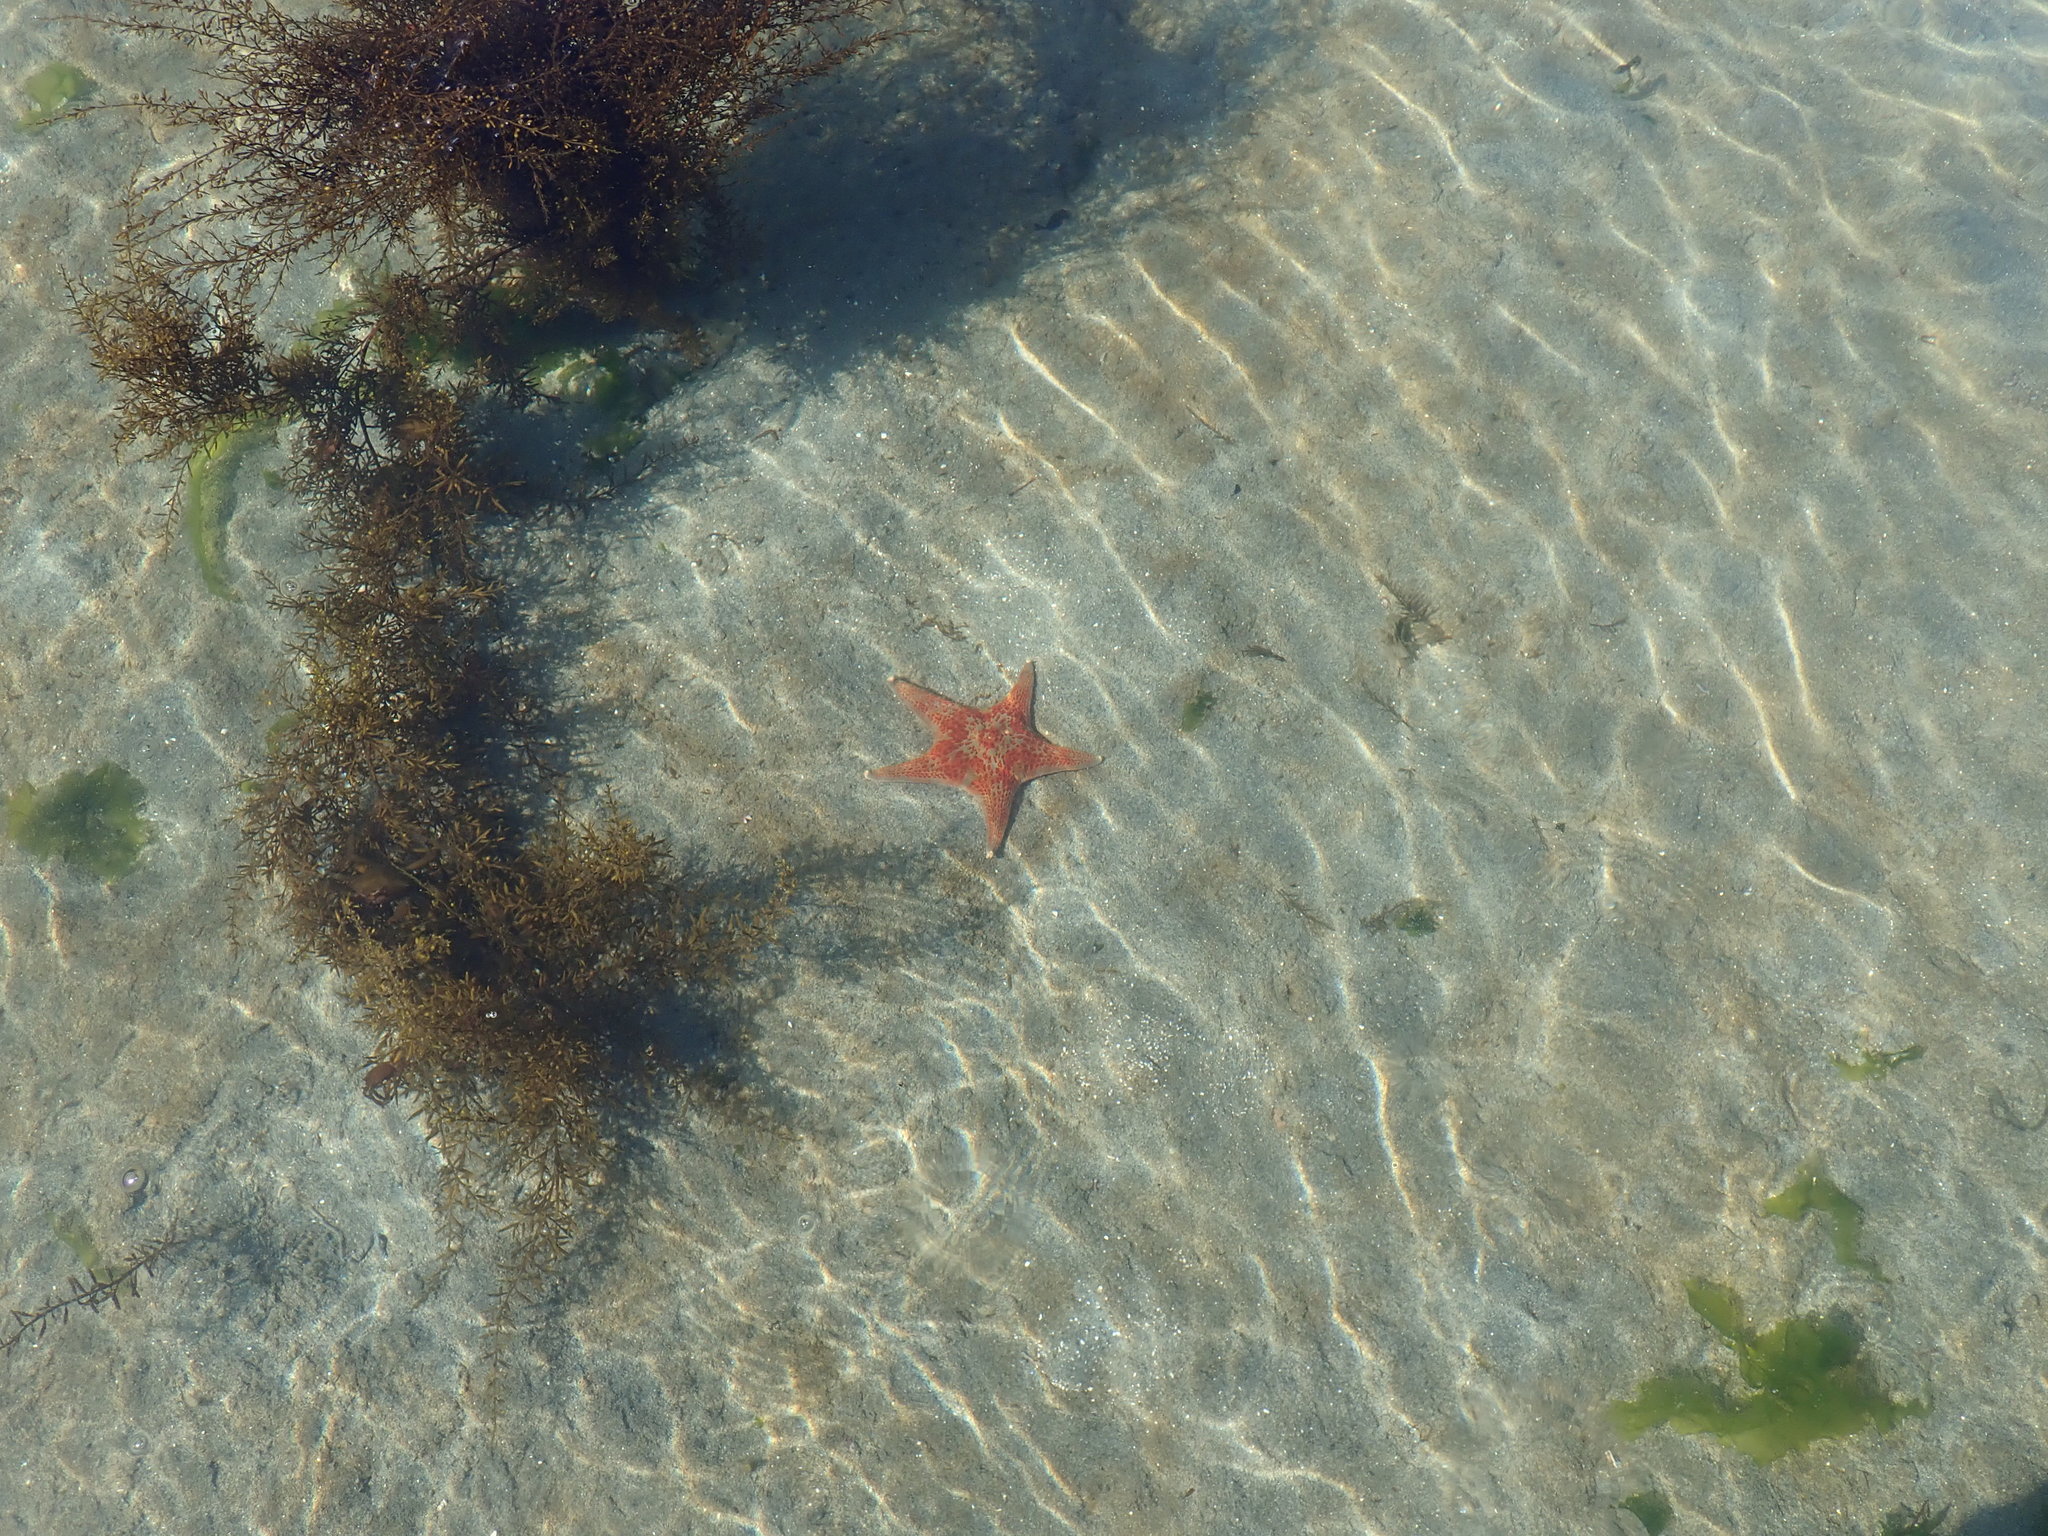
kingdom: Animalia
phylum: Echinodermata
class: Asteroidea
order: Valvatida
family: Asteropseidae
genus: Dermasterias
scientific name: Dermasterias imbricata
